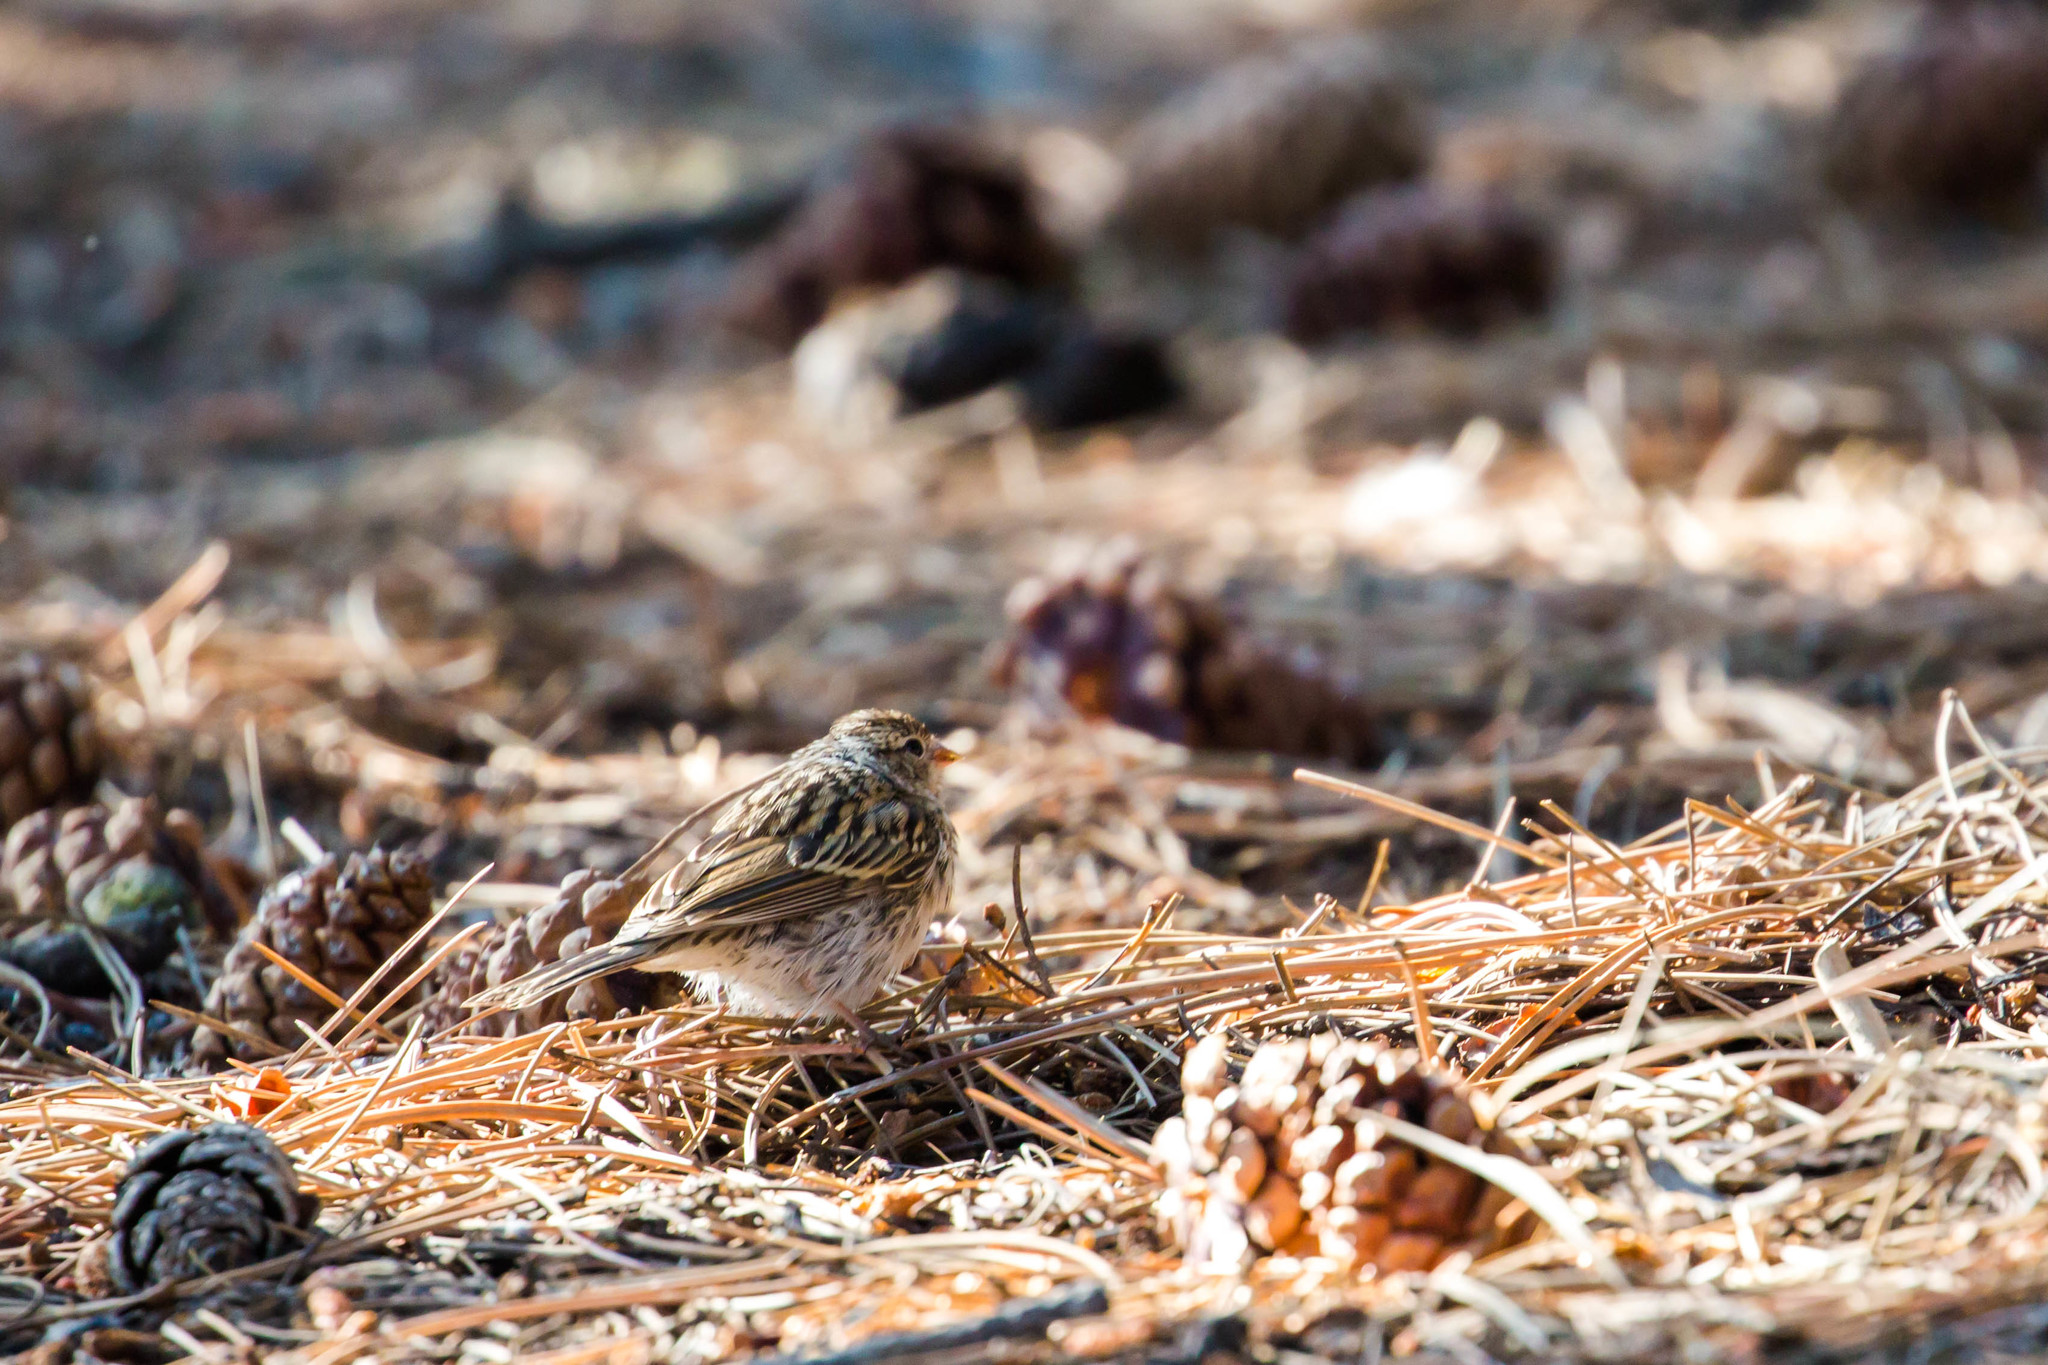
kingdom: Animalia
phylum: Chordata
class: Aves
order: Passeriformes
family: Passerellidae
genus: Spizella
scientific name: Spizella passerina
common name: Chipping sparrow
